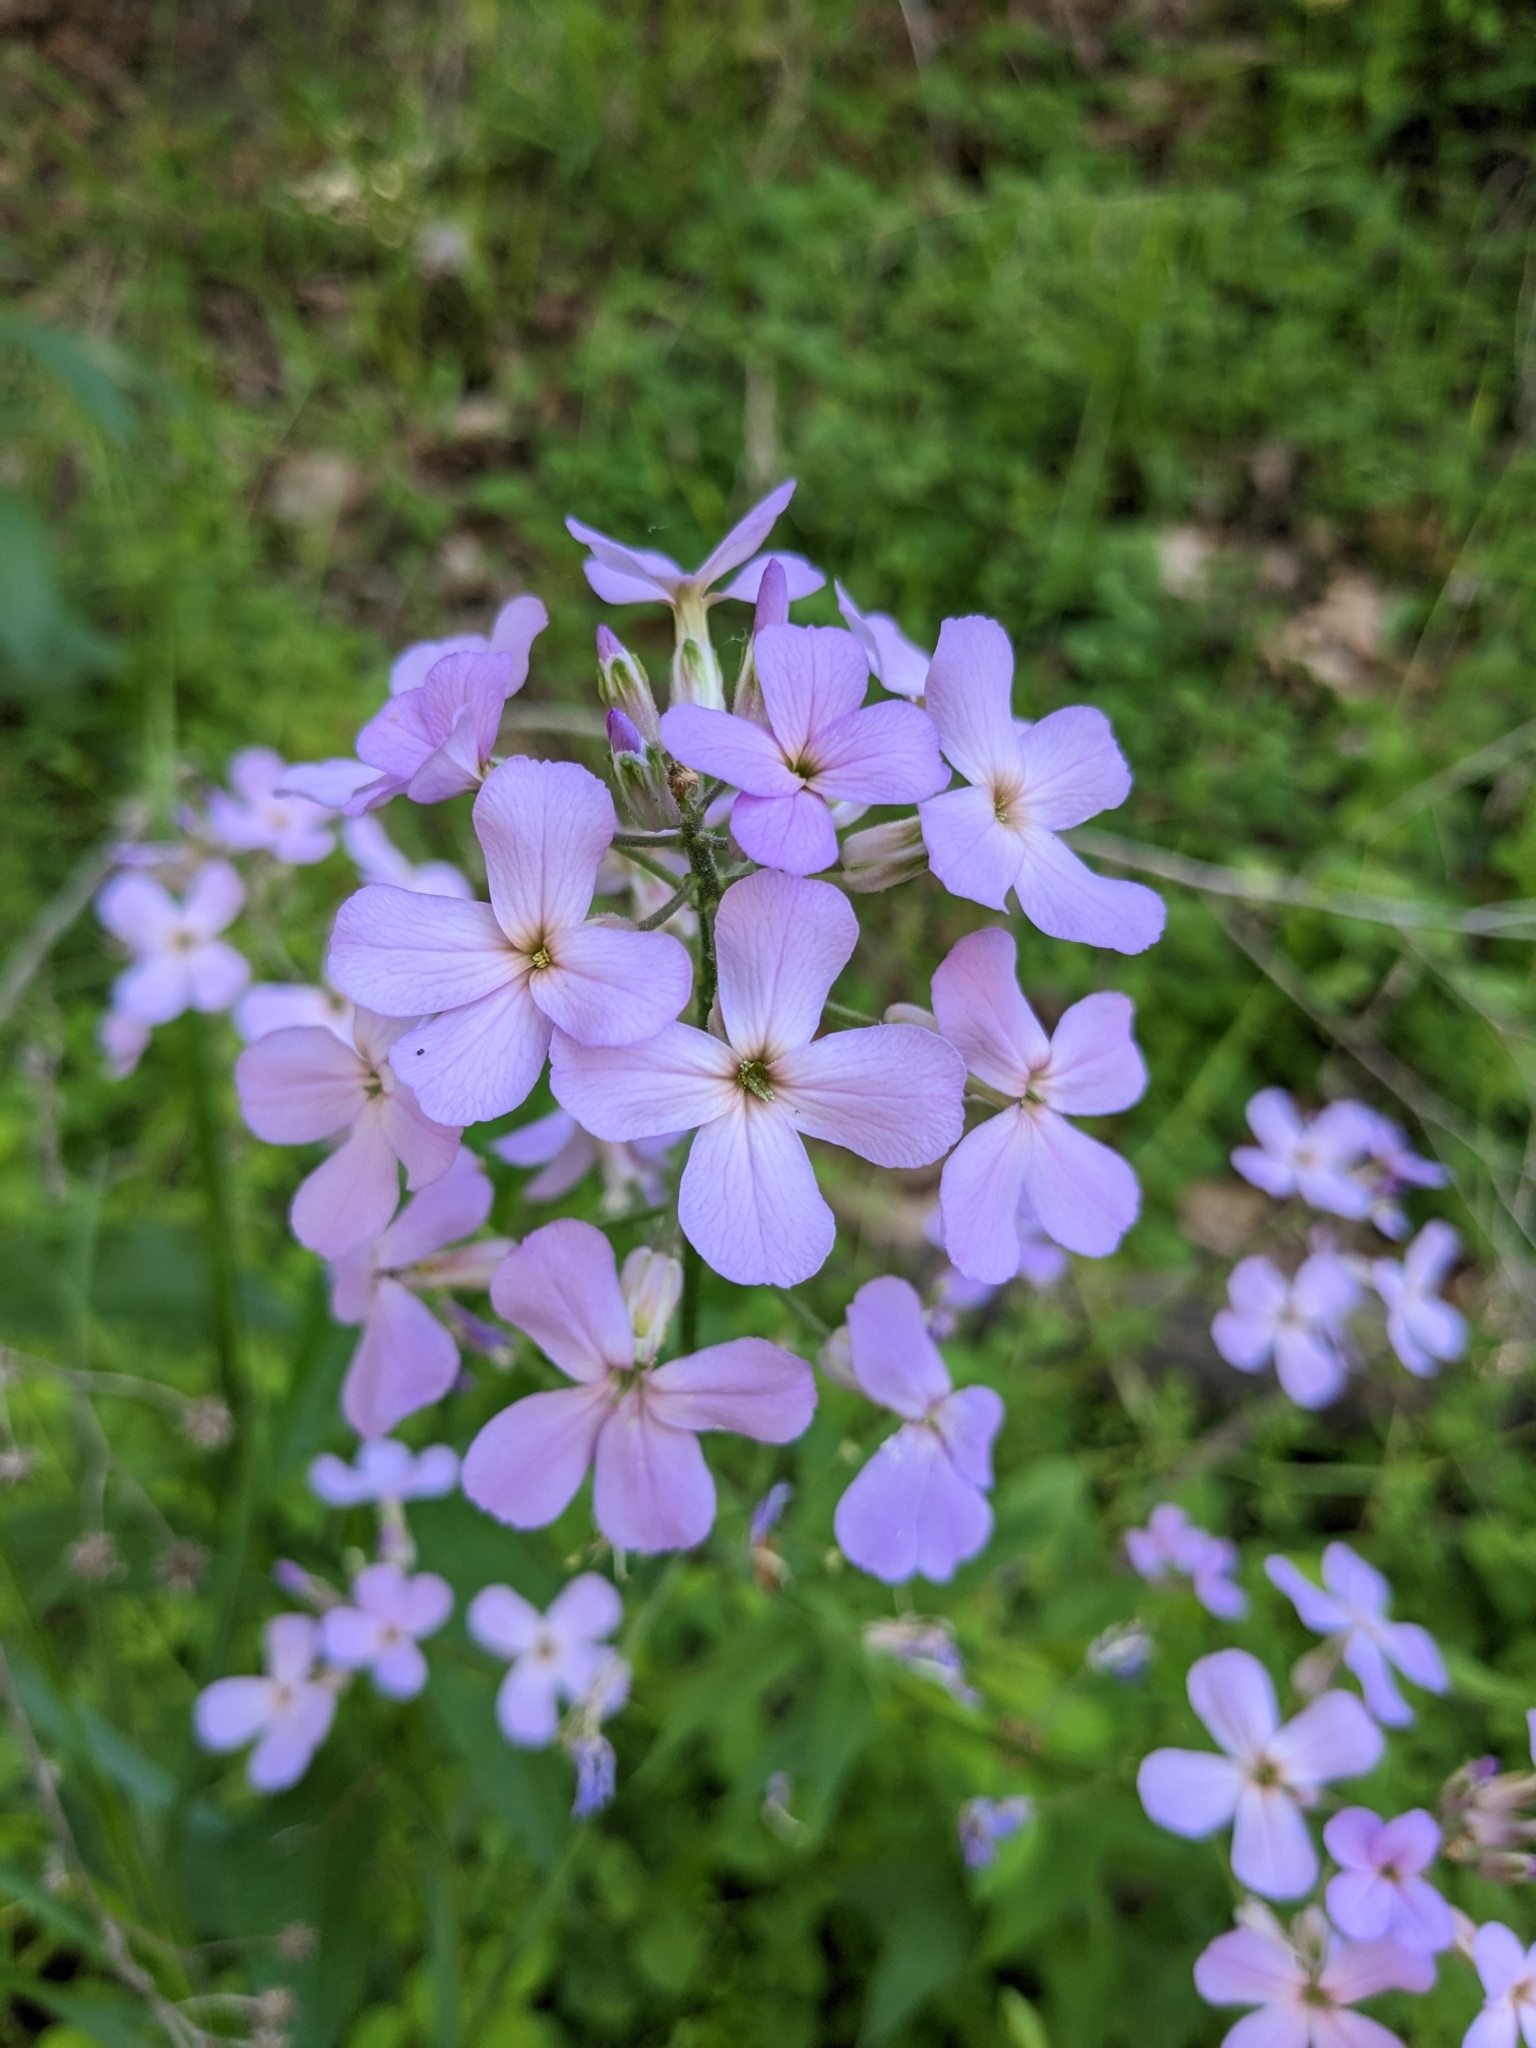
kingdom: Plantae
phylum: Tracheophyta
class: Magnoliopsida
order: Brassicales
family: Brassicaceae
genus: Hesperis
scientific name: Hesperis matronalis
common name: Dame's-violet
